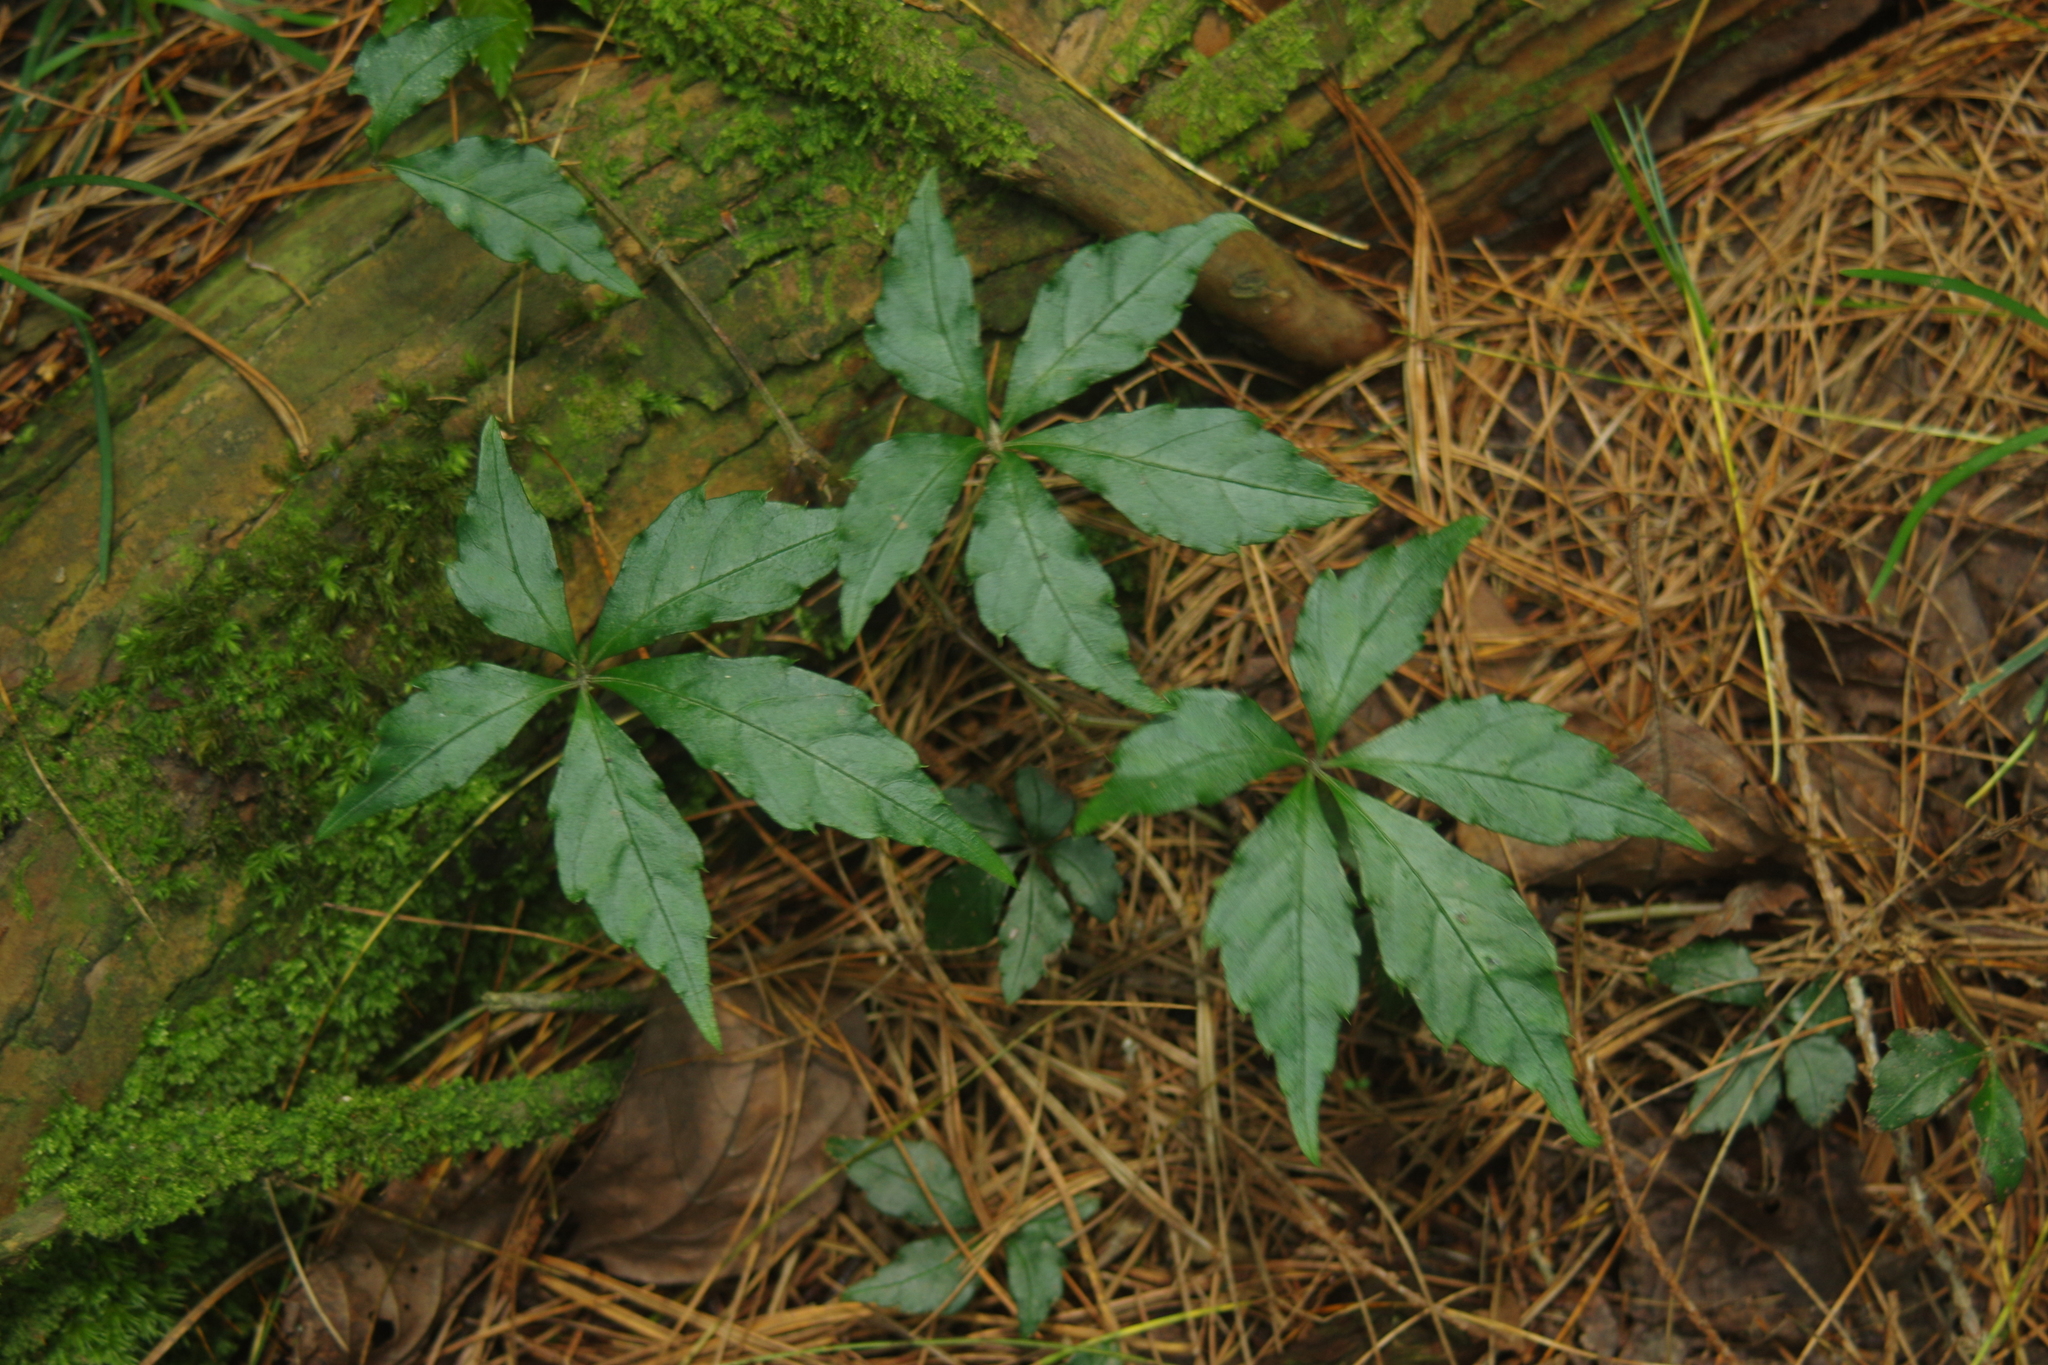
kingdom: Plantae
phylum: Tracheophyta
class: Magnoliopsida
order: Vitales
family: Vitaceae
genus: Tetrastigma
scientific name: Tetrastigma obtectum
